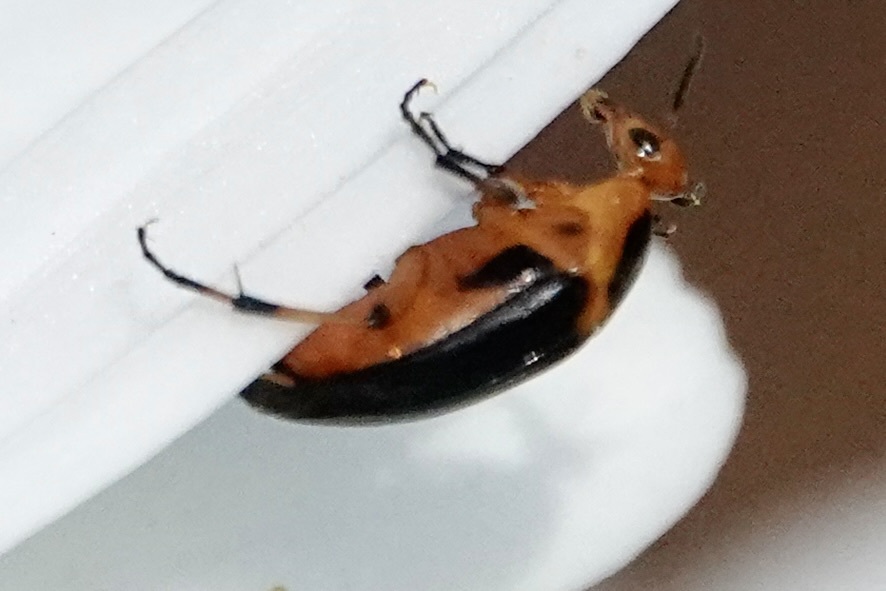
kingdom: Animalia
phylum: Arthropoda
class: Insecta
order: Coleoptera
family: Ripiphoridae
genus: Macrosiagon
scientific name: Macrosiagon limbatum
